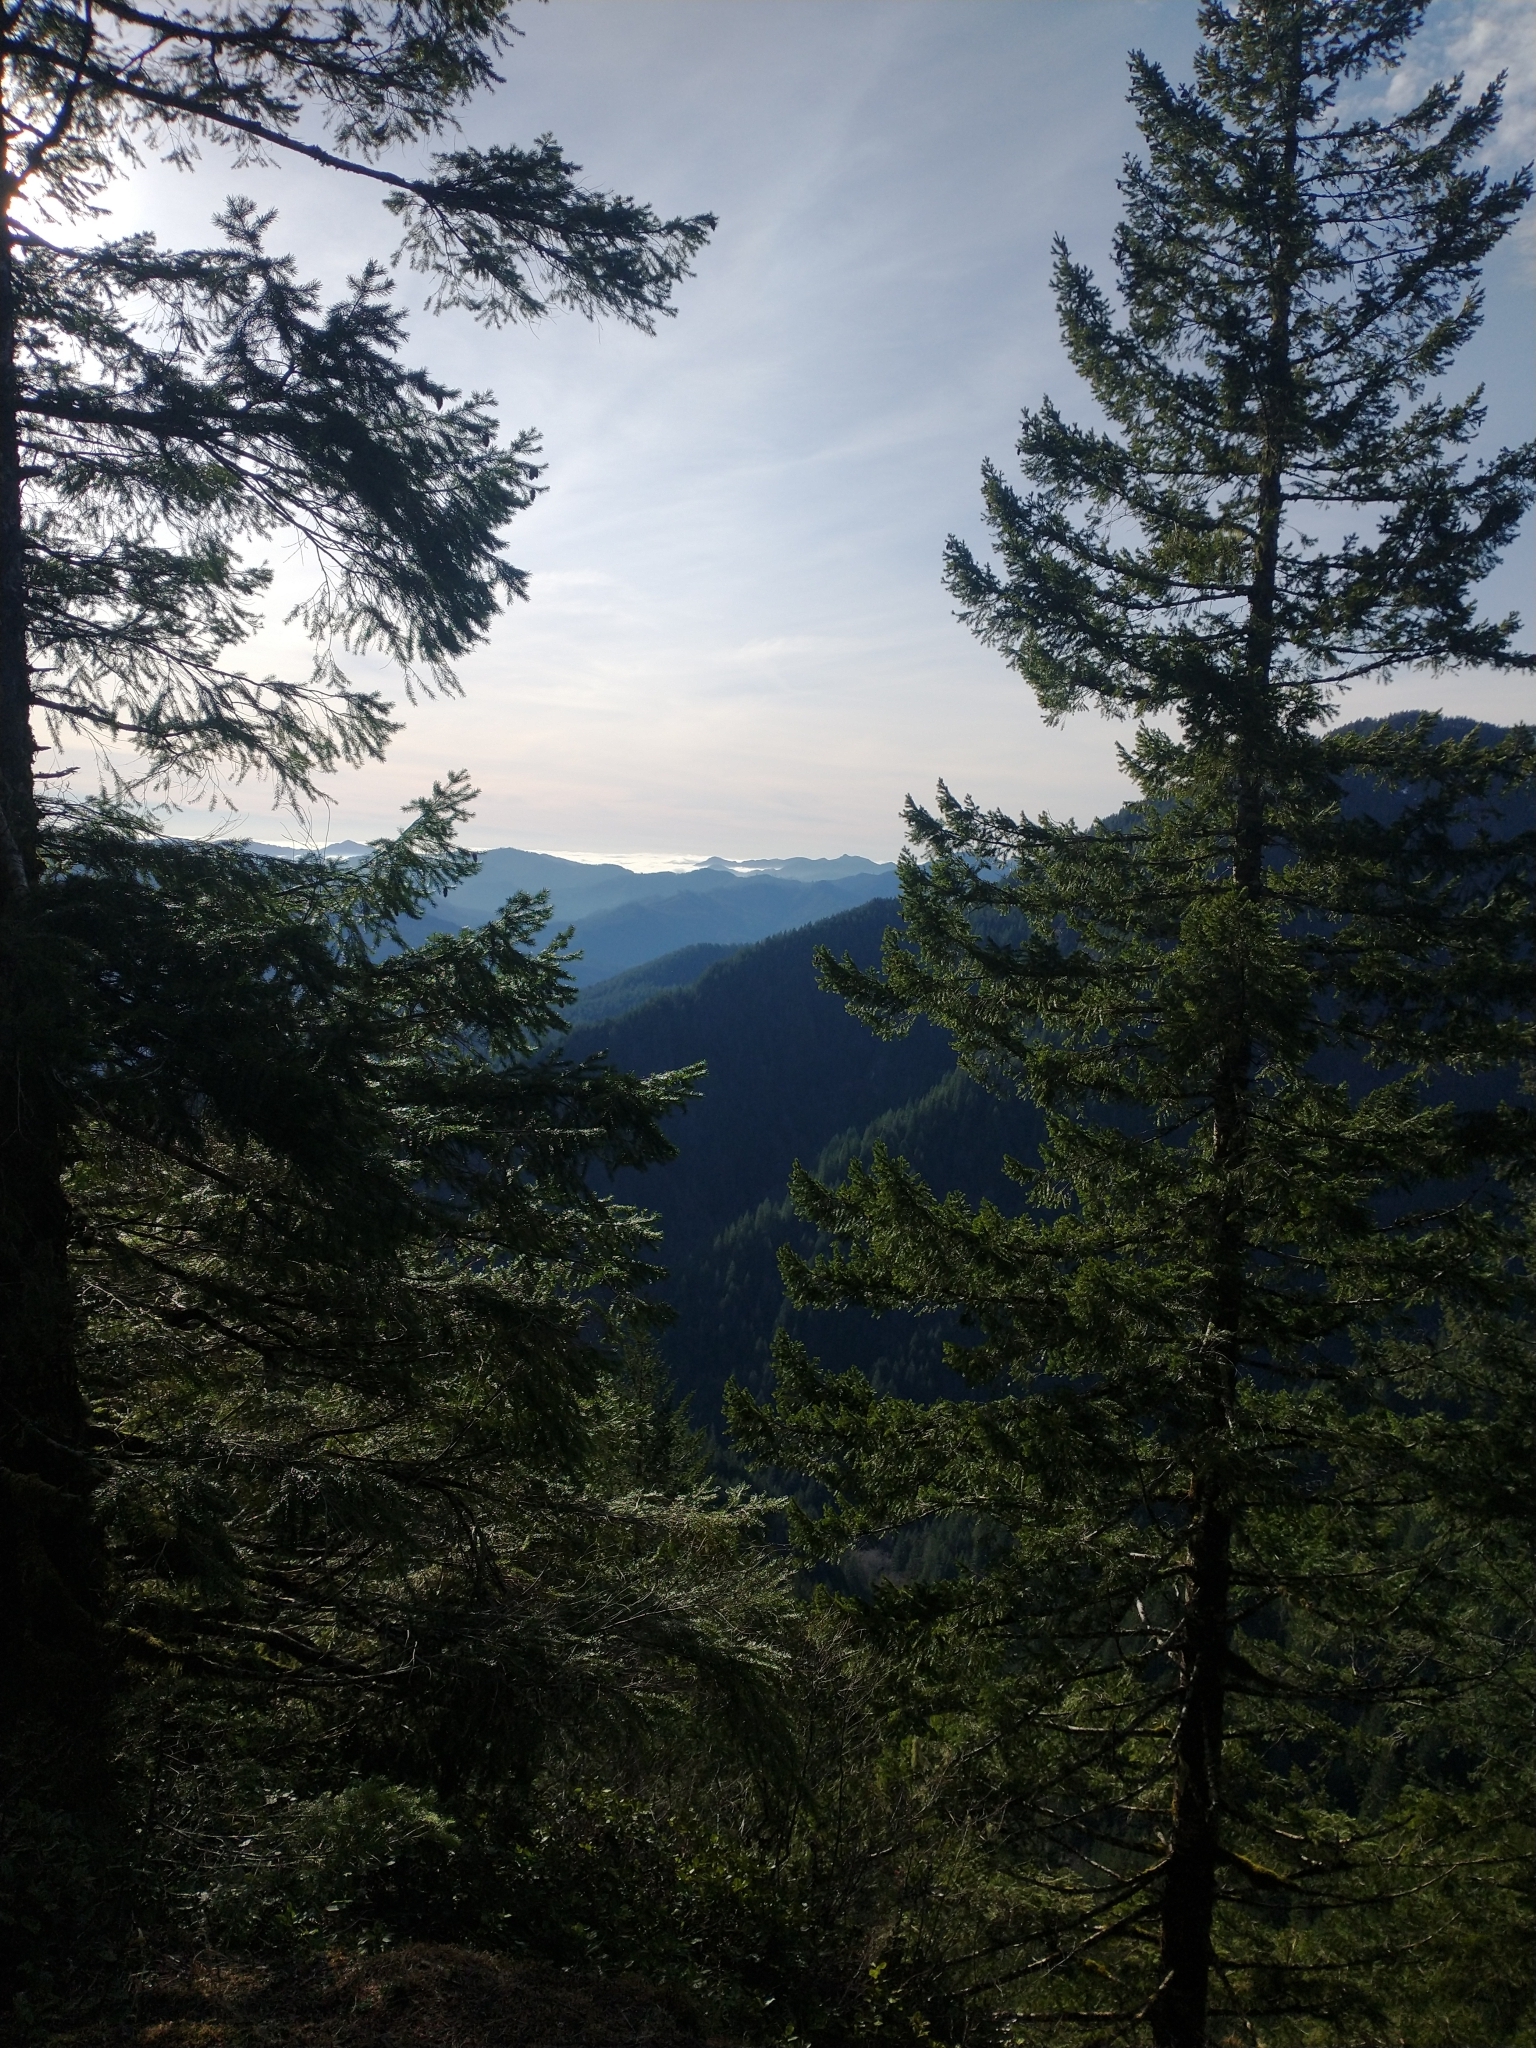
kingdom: Plantae
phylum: Tracheophyta
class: Pinopsida
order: Pinales
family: Pinaceae
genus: Pseudotsuga
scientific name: Pseudotsuga menziesii
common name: Douglas fir
